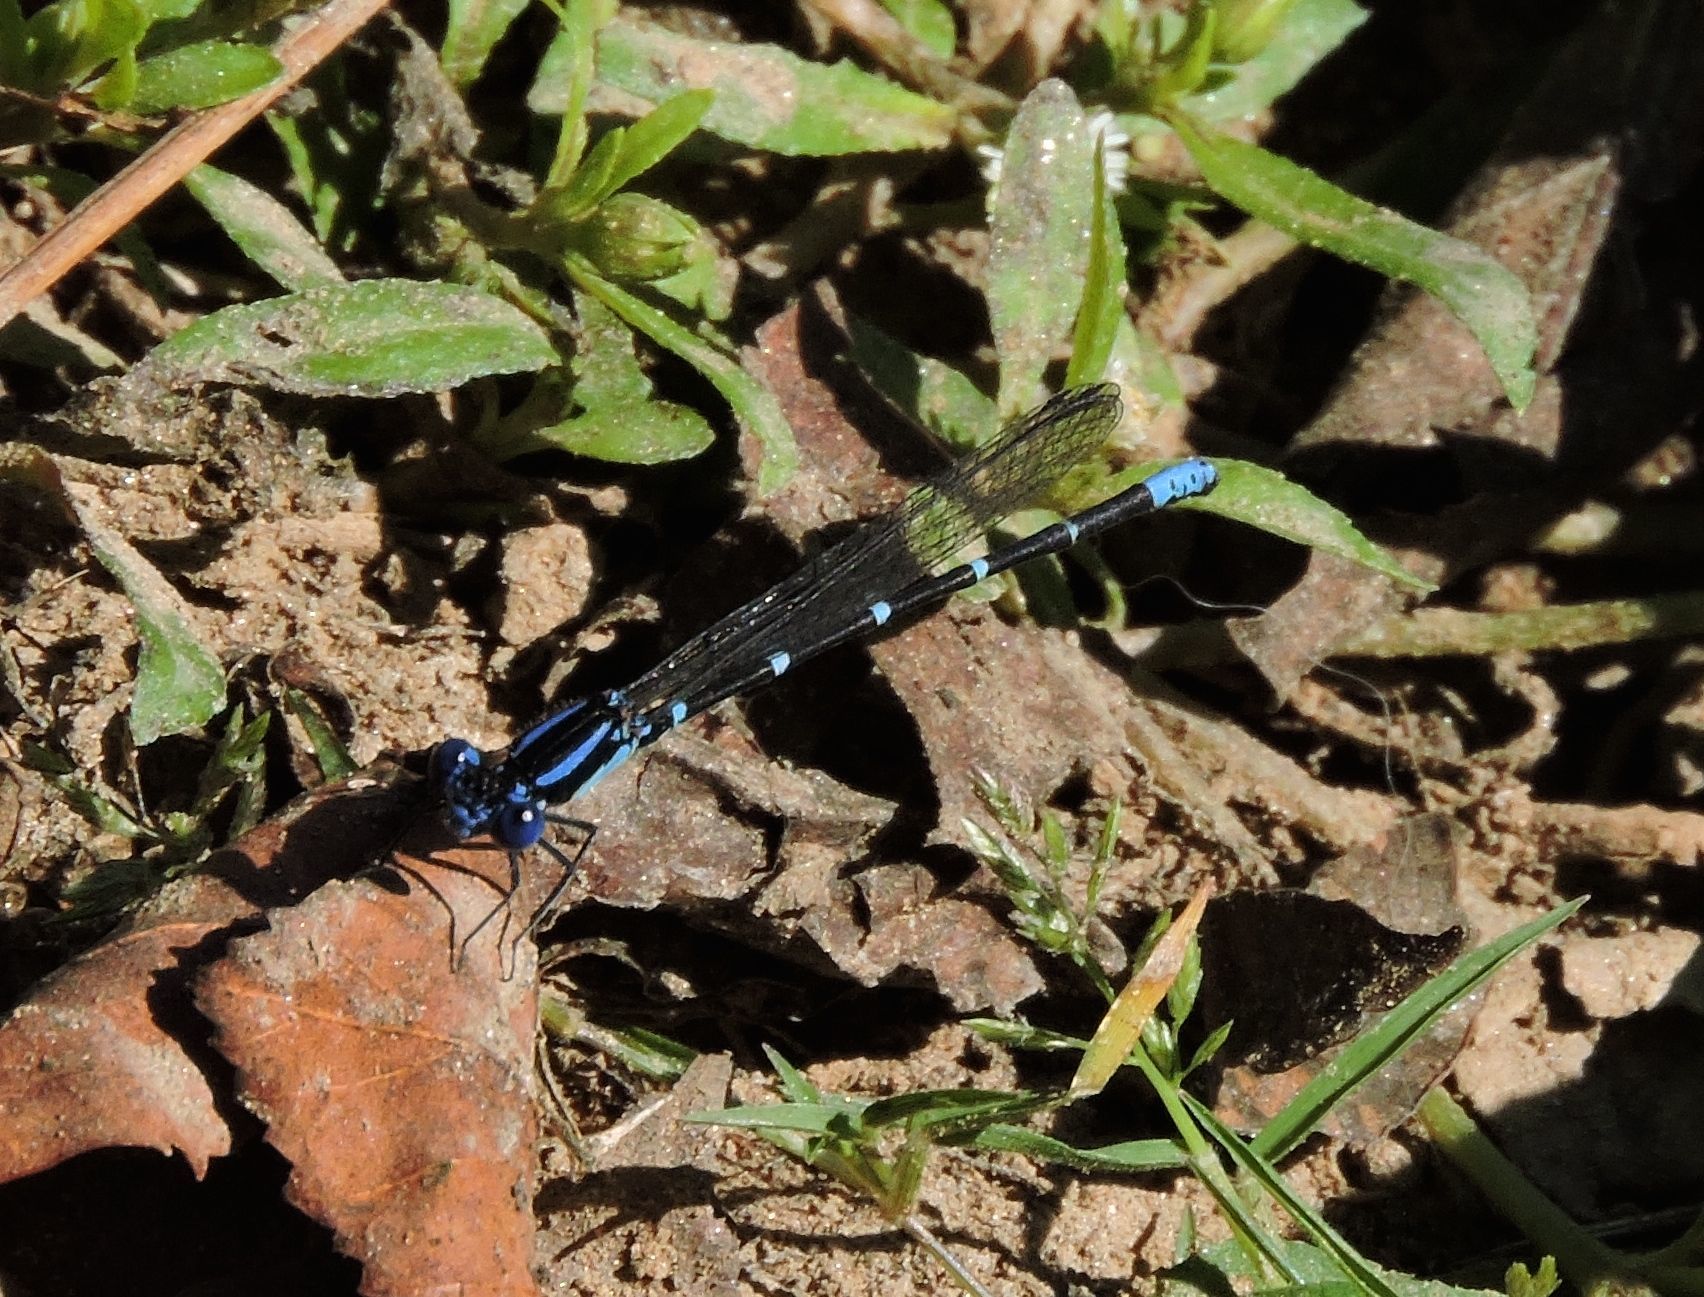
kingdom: Animalia
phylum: Arthropoda
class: Insecta
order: Odonata
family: Coenagrionidae
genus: Argia
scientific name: Argia sedula
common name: Blue-ringed dancer
